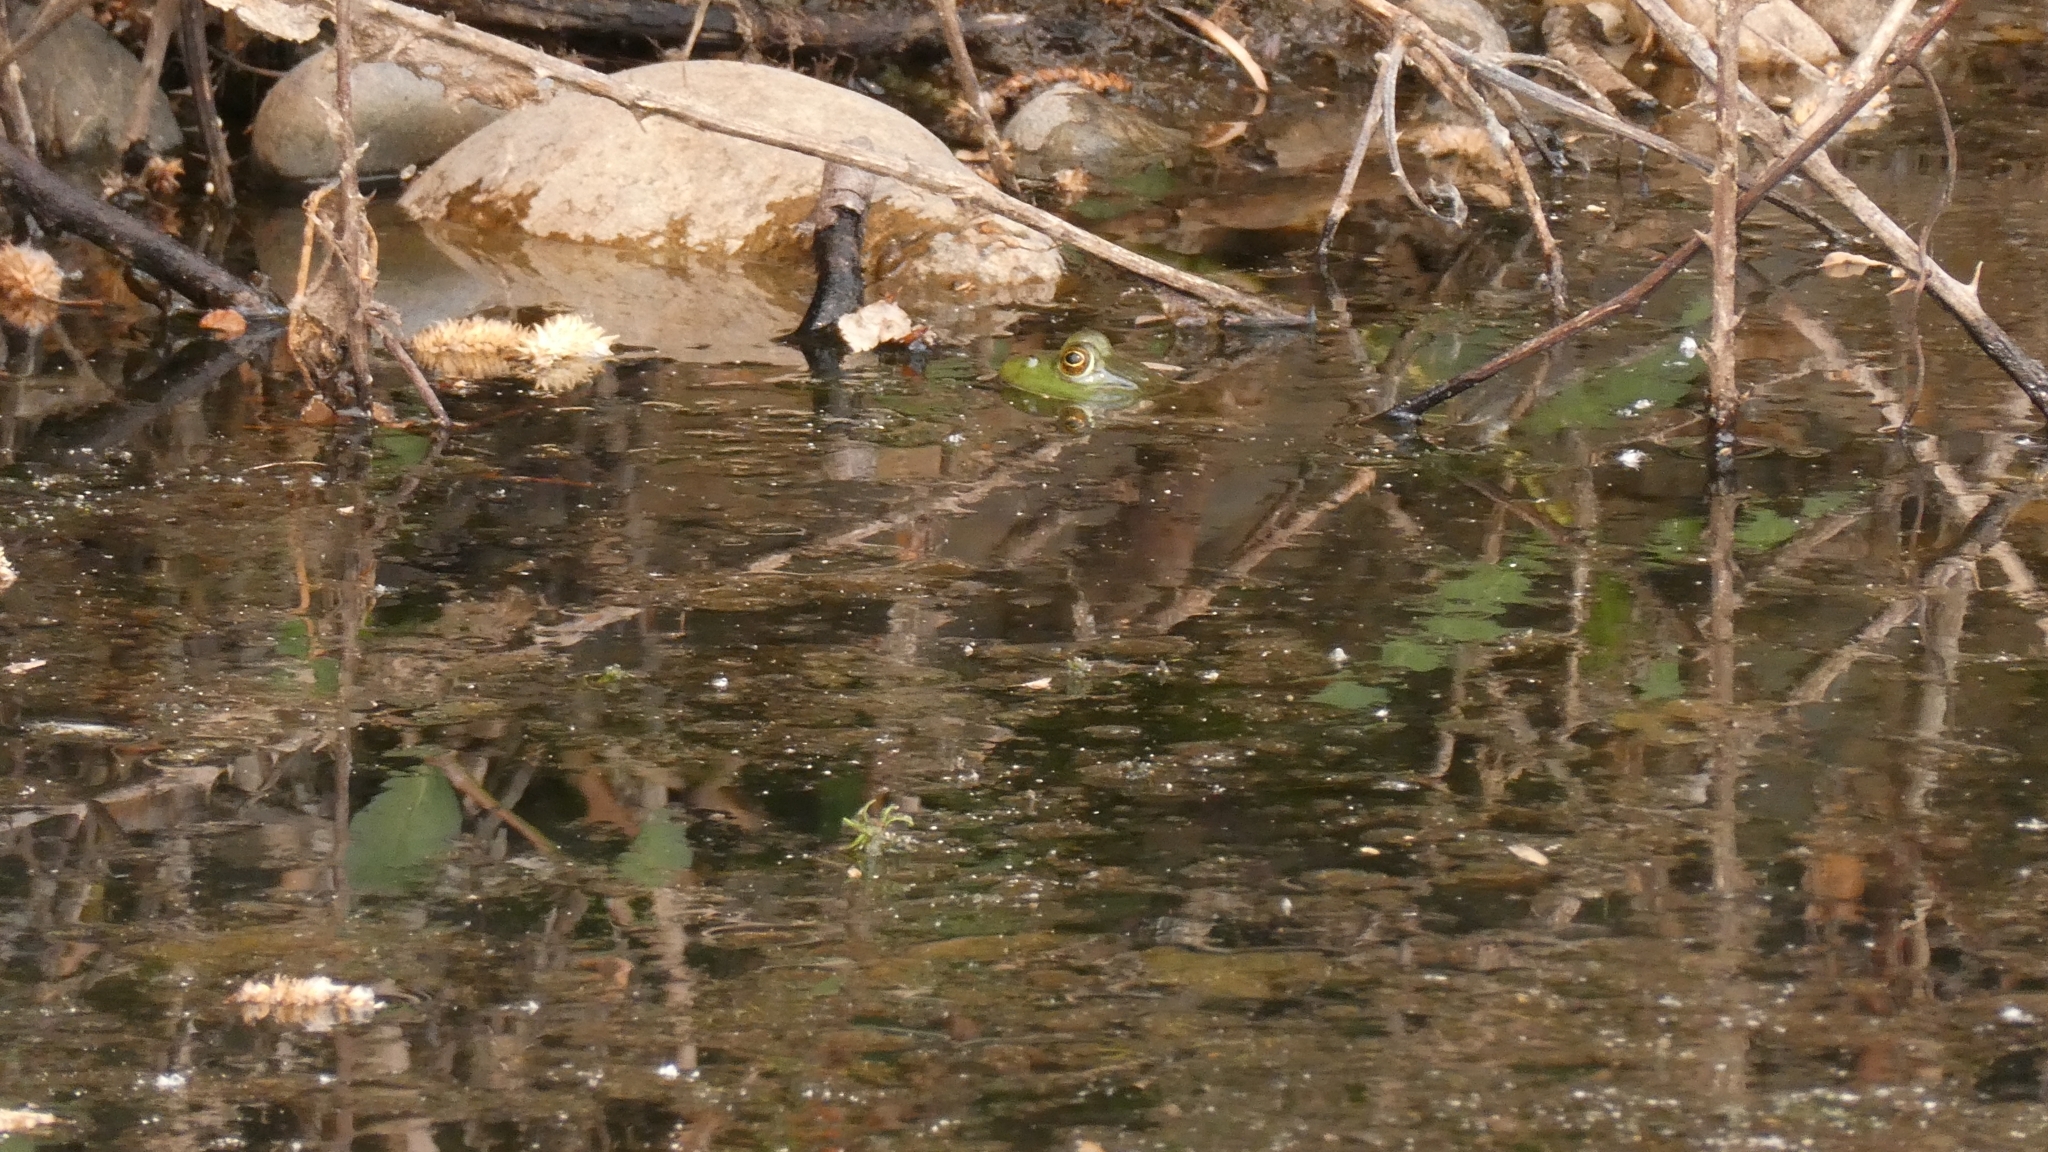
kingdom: Animalia
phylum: Chordata
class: Amphibia
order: Anura
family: Ranidae
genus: Lithobates
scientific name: Lithobates catesbeianus
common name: American bullfrog
